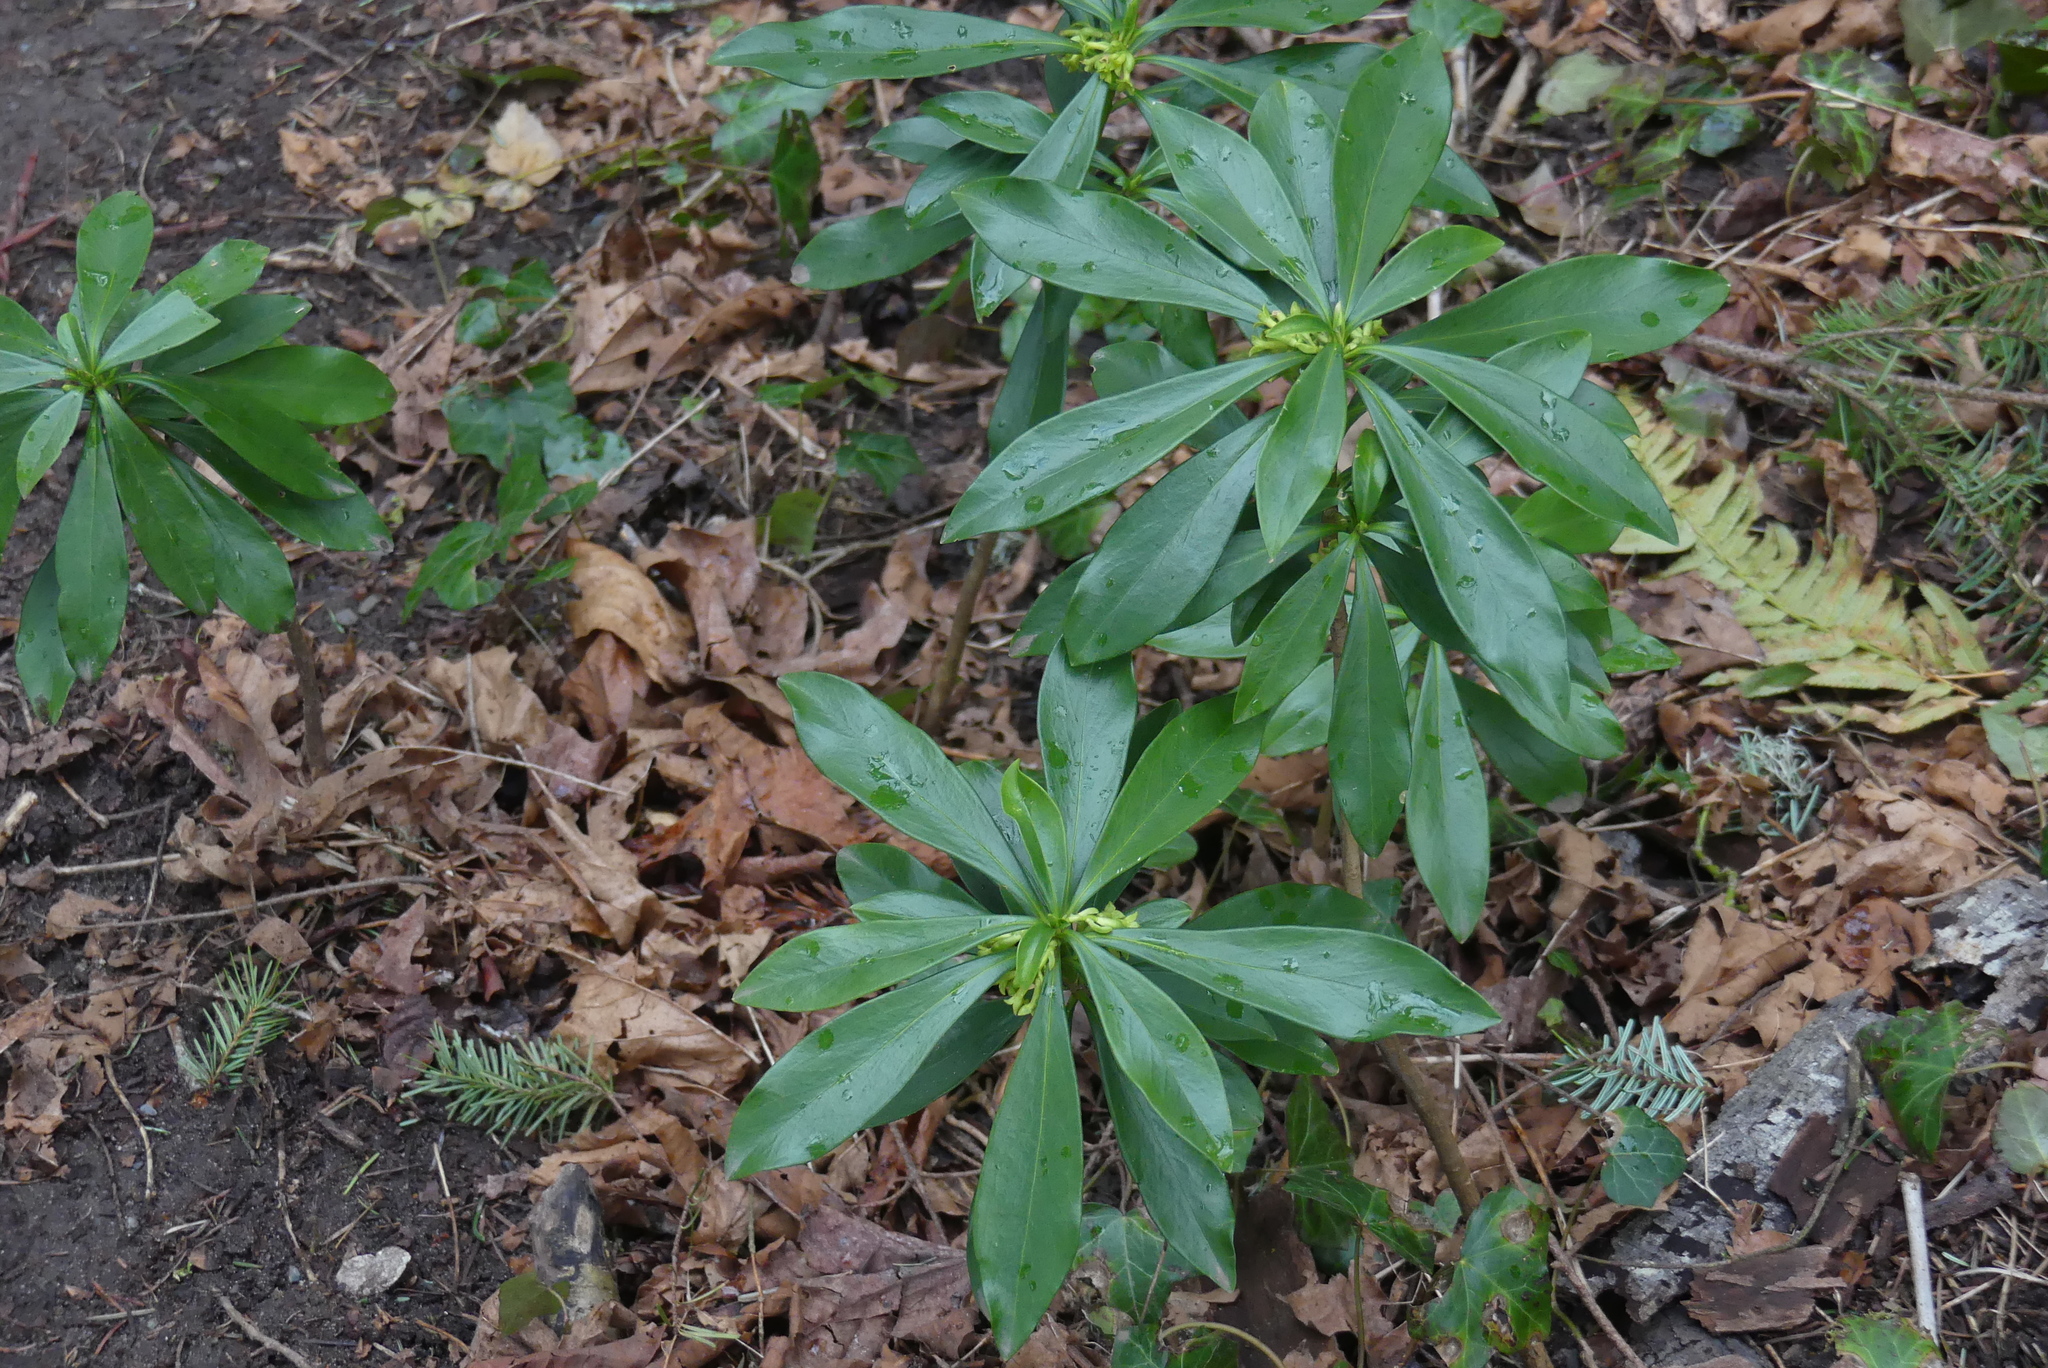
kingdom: Plantae
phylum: Tracheophyta
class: Magnoliopsida
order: Malvales
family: Thymelaeaceae
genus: Daphne
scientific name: Daphne laureola
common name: Spurge-laurel
